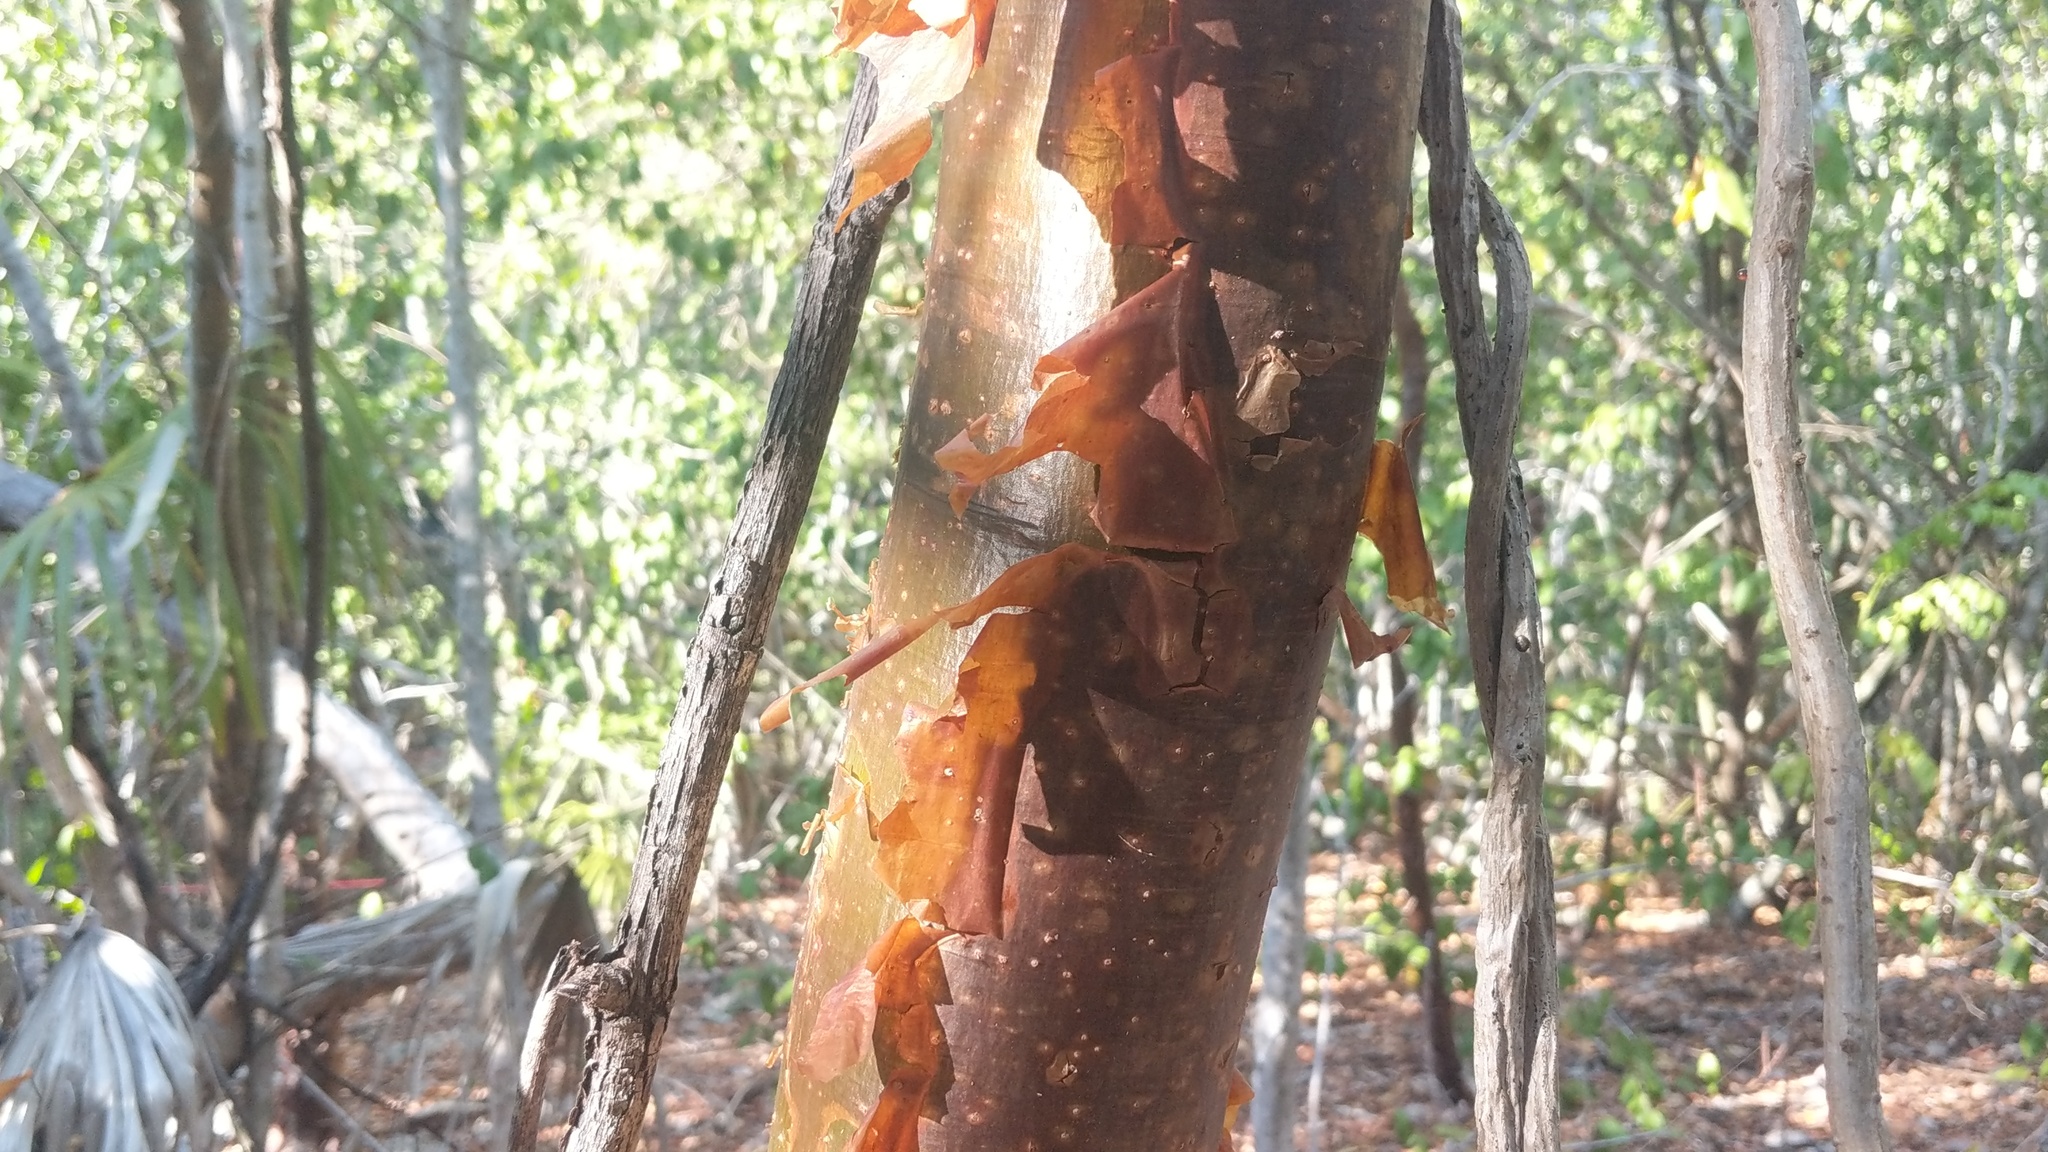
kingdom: Plantae
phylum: Tracheophyta
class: Magnoliopsida
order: Sapindales
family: Burseraceae
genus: Bursera
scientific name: Bursera simaruba
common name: Turpentine tree
